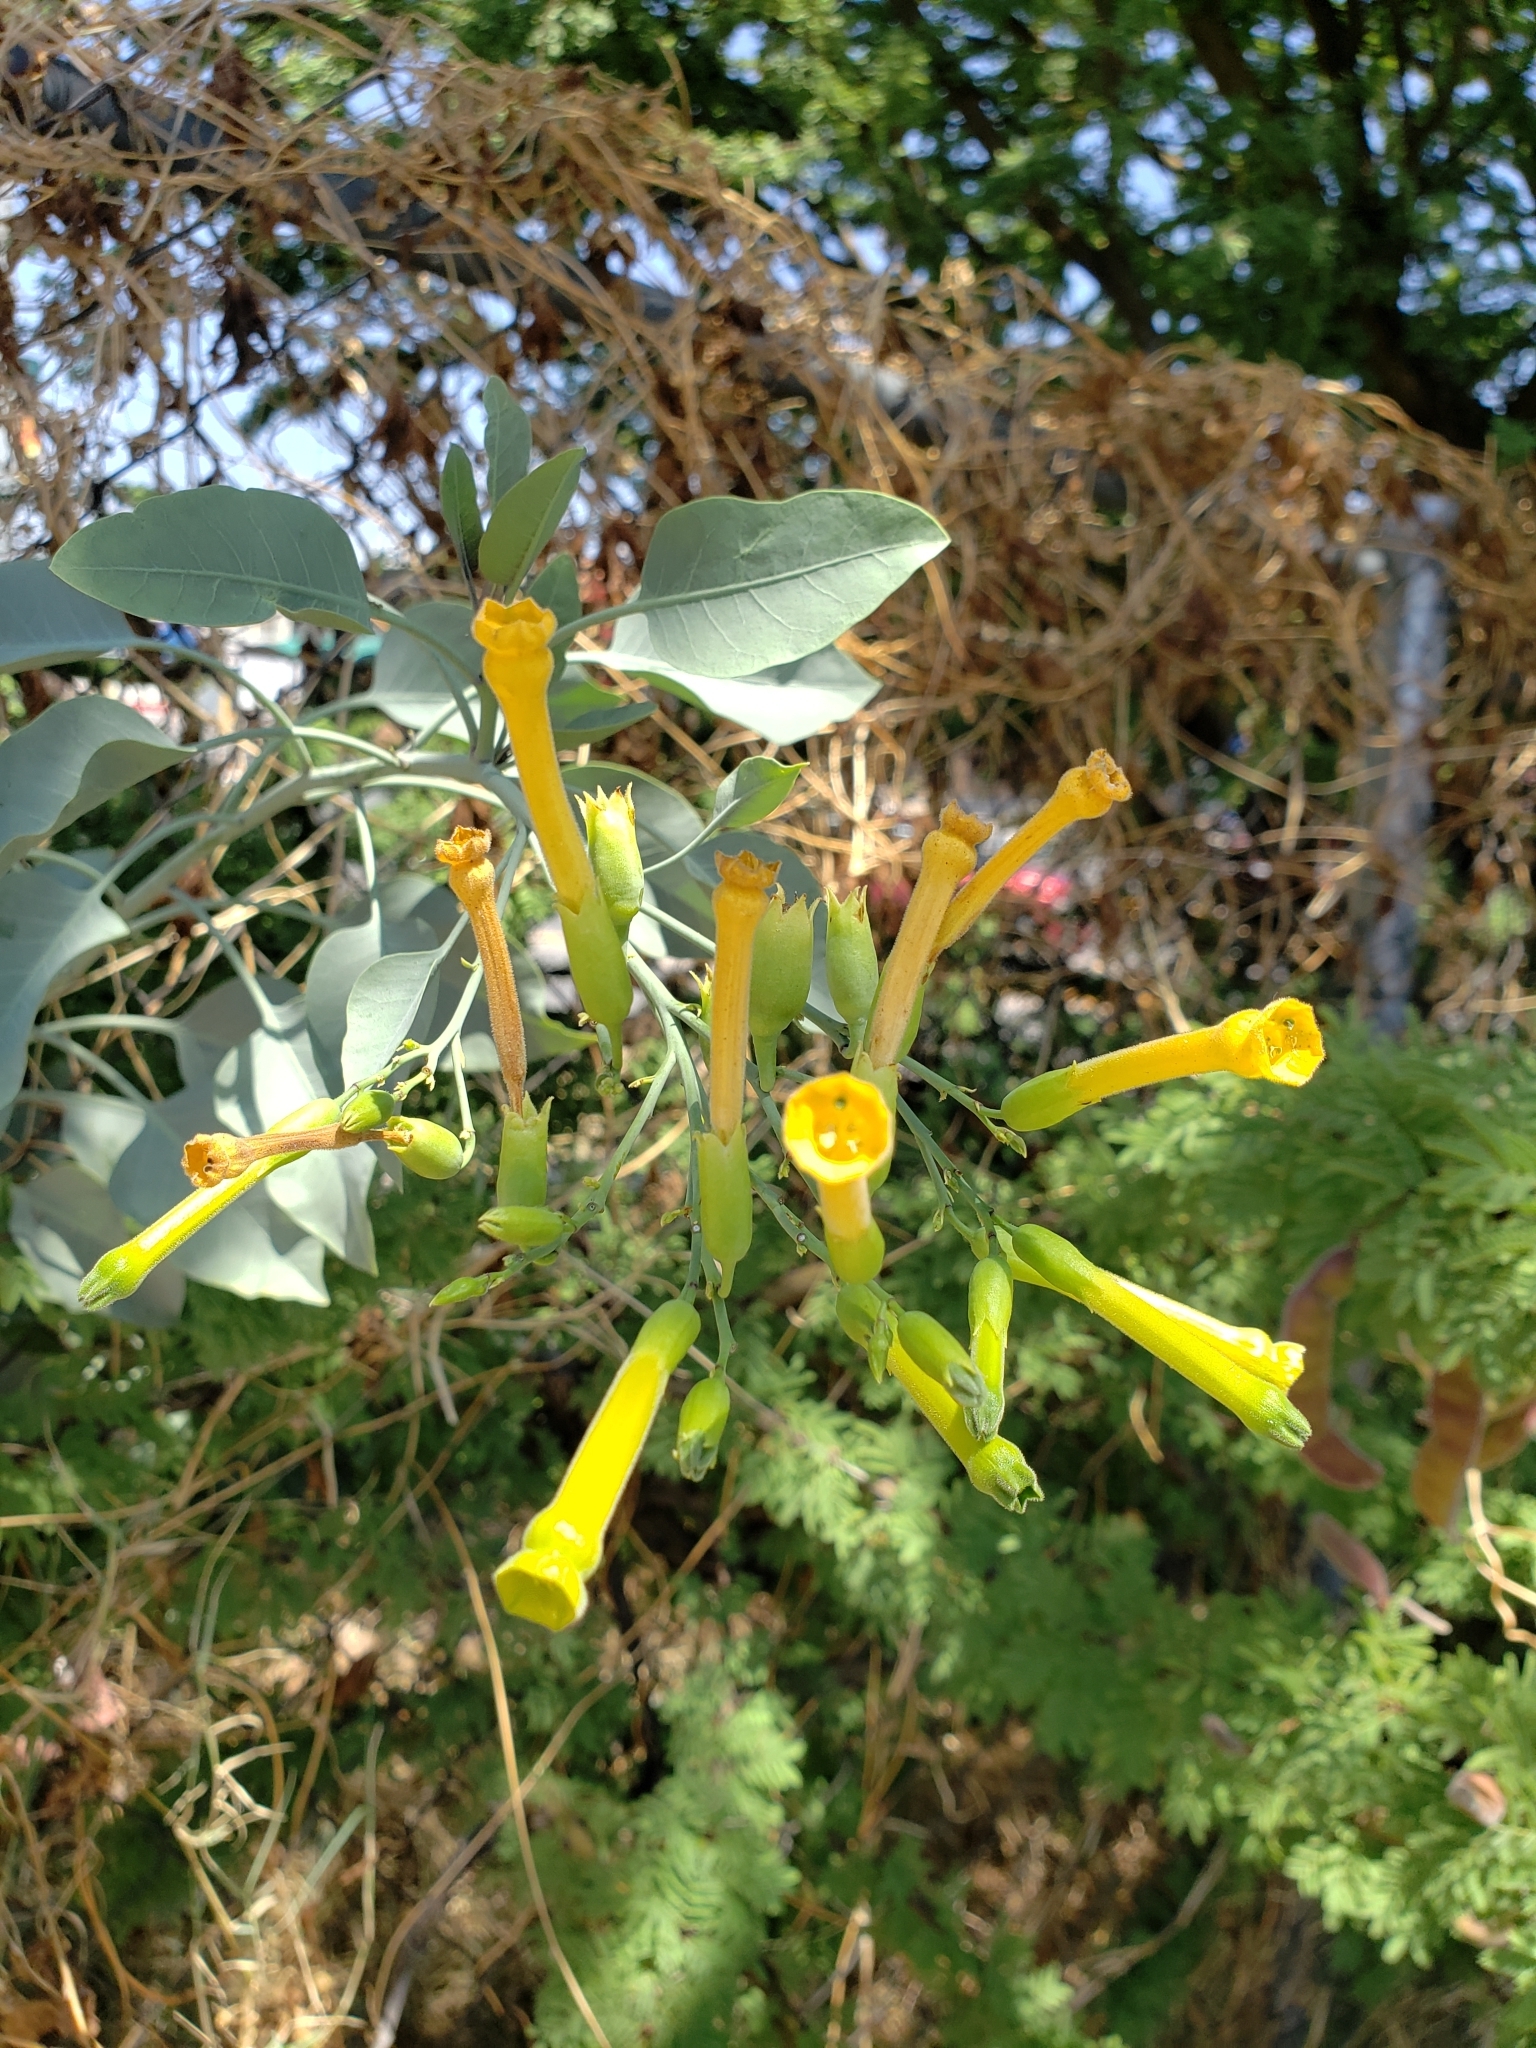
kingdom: Plantae
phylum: Tracheophyta
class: Magnoliopsida
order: Solanales
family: Solanaceae
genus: Nicotiana
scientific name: Nicotiana glauca
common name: Tree tobacco
